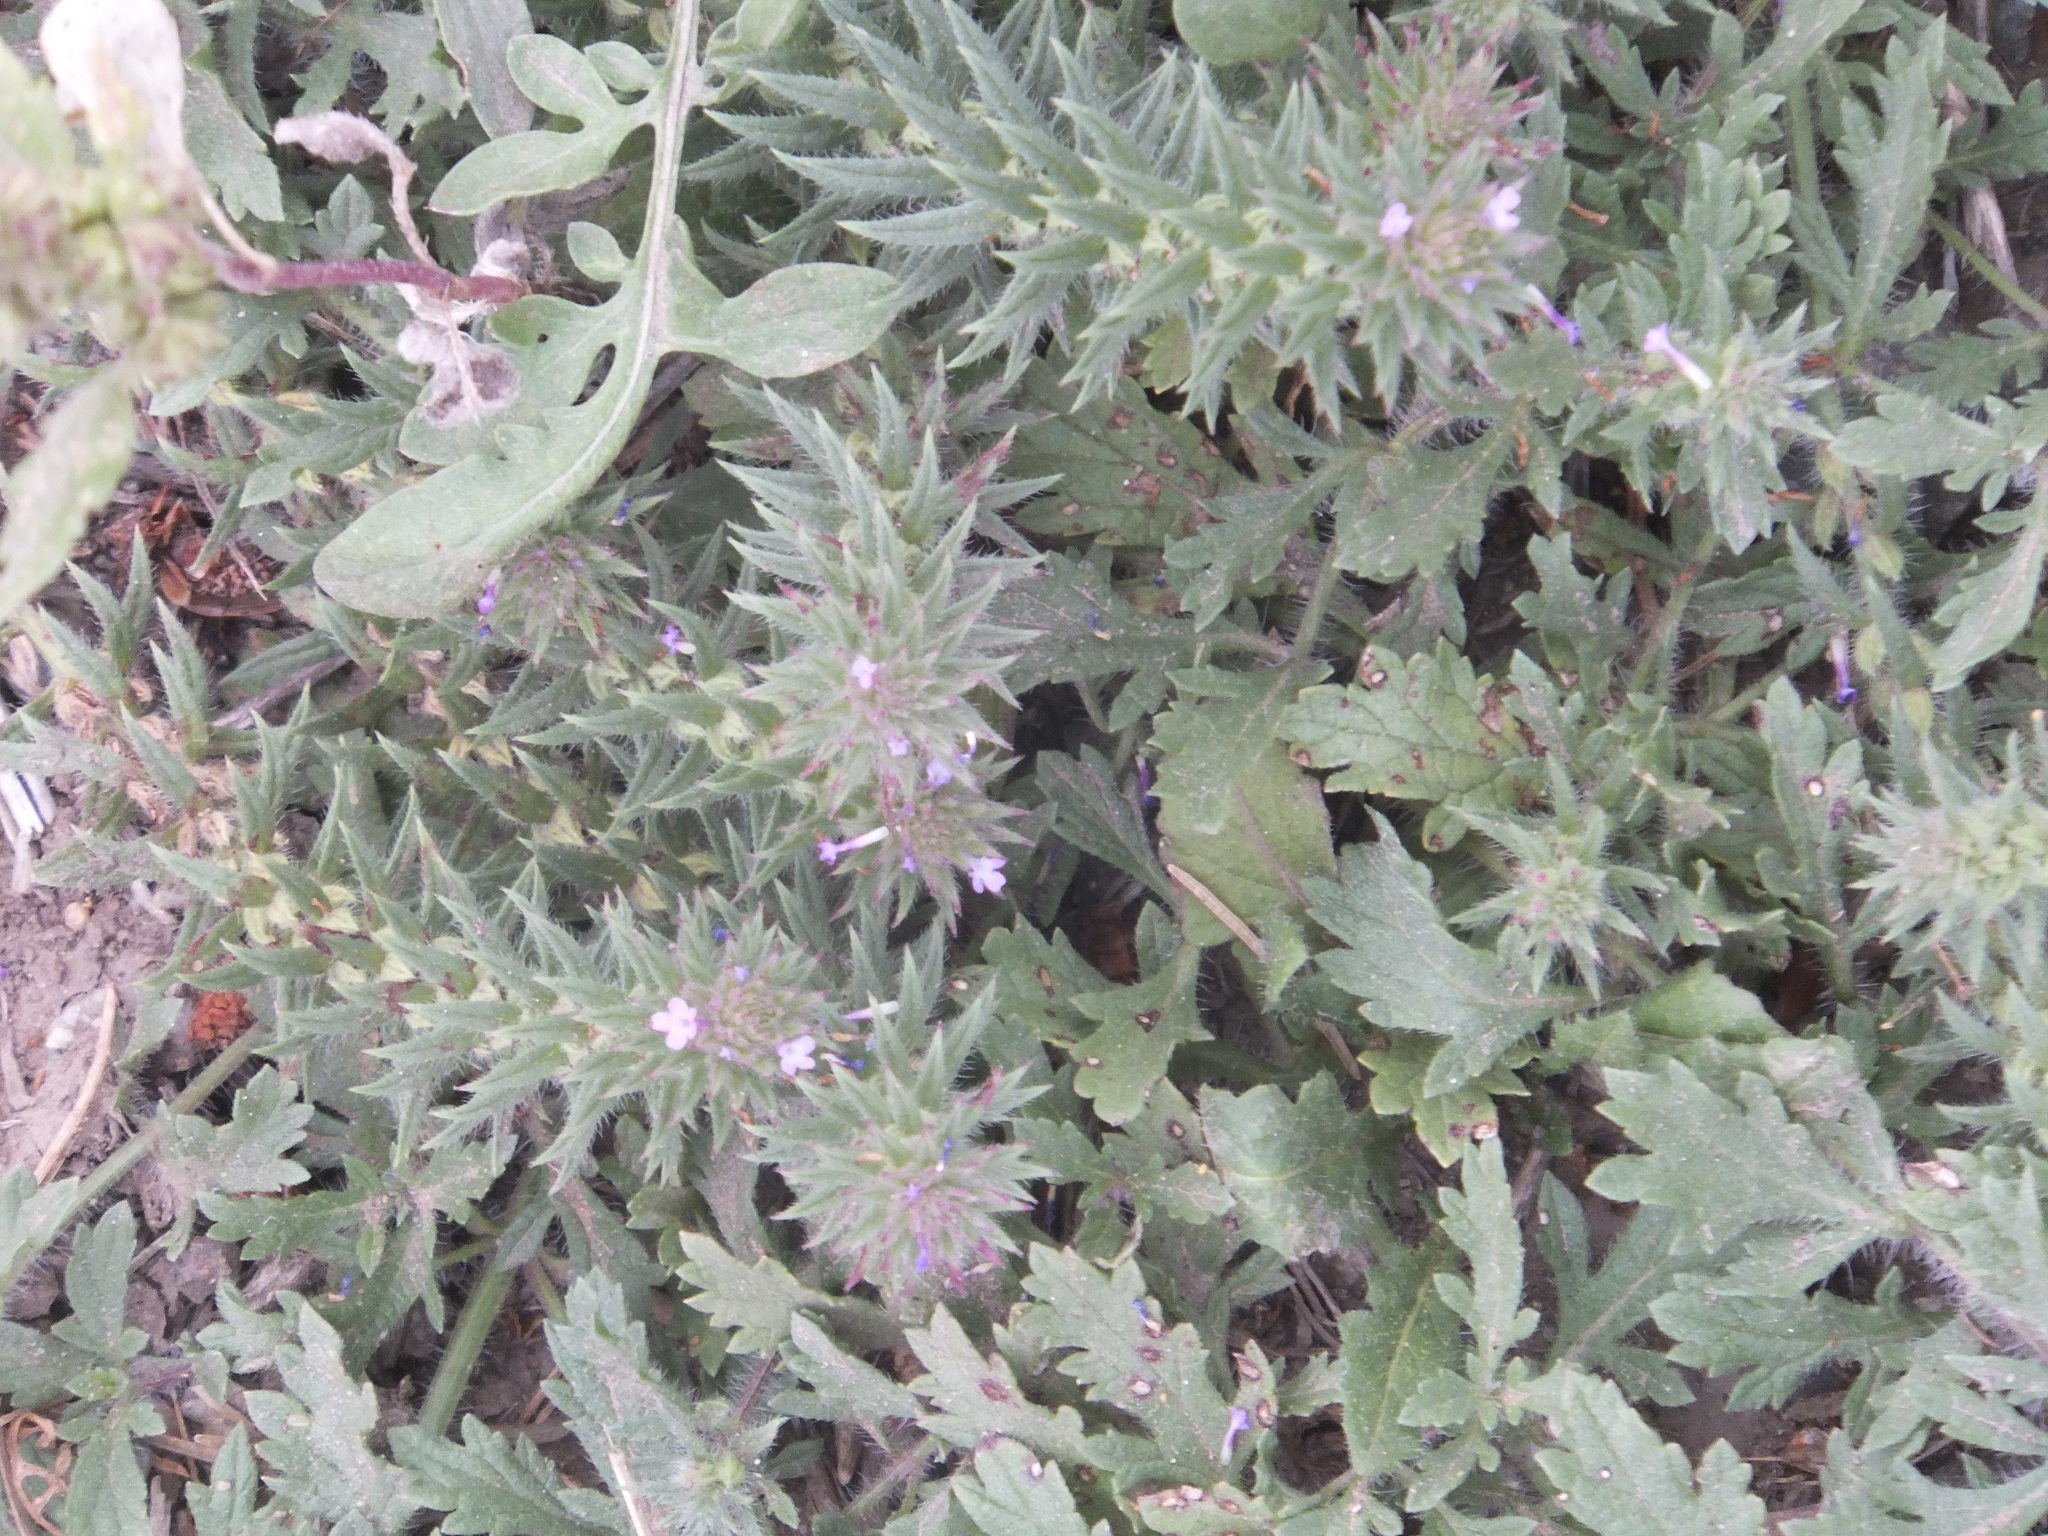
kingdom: Plantae
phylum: Tracheophyta
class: Magnoliopsida
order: Lamiales
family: Verbenaceae
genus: Verbena
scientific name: Verbena bracteata
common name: Bracted vervain
